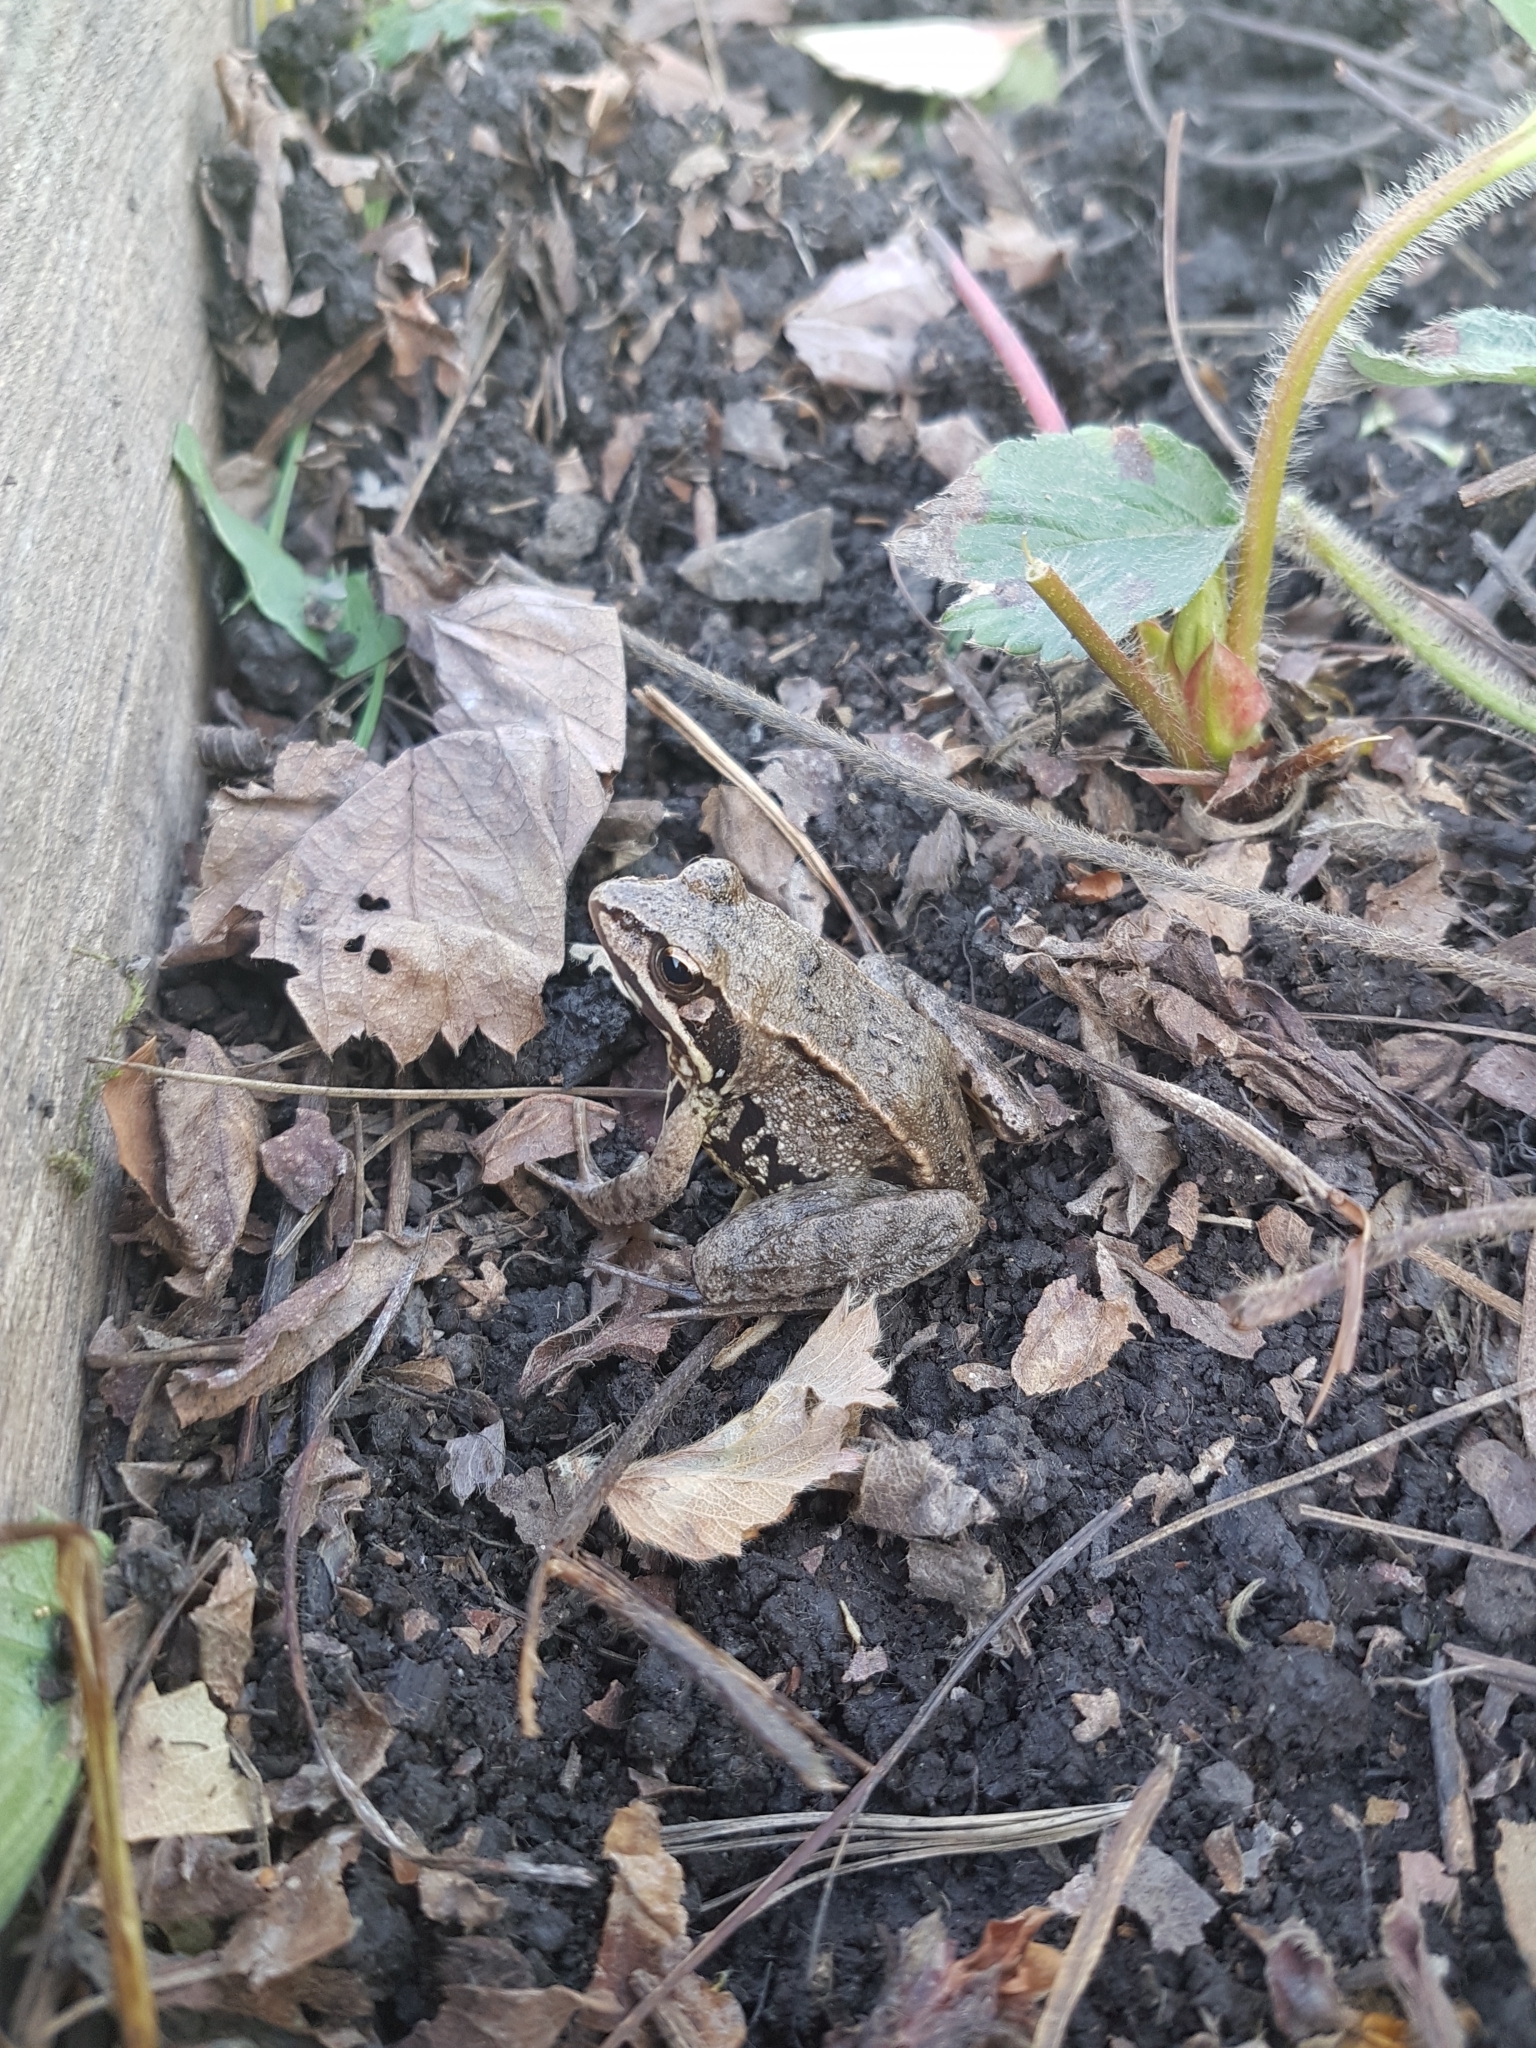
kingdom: Animalia
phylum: Chordata
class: Amphibia
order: Anura
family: Ranidae
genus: Rana
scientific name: Rana arvalis
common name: Moor frog
